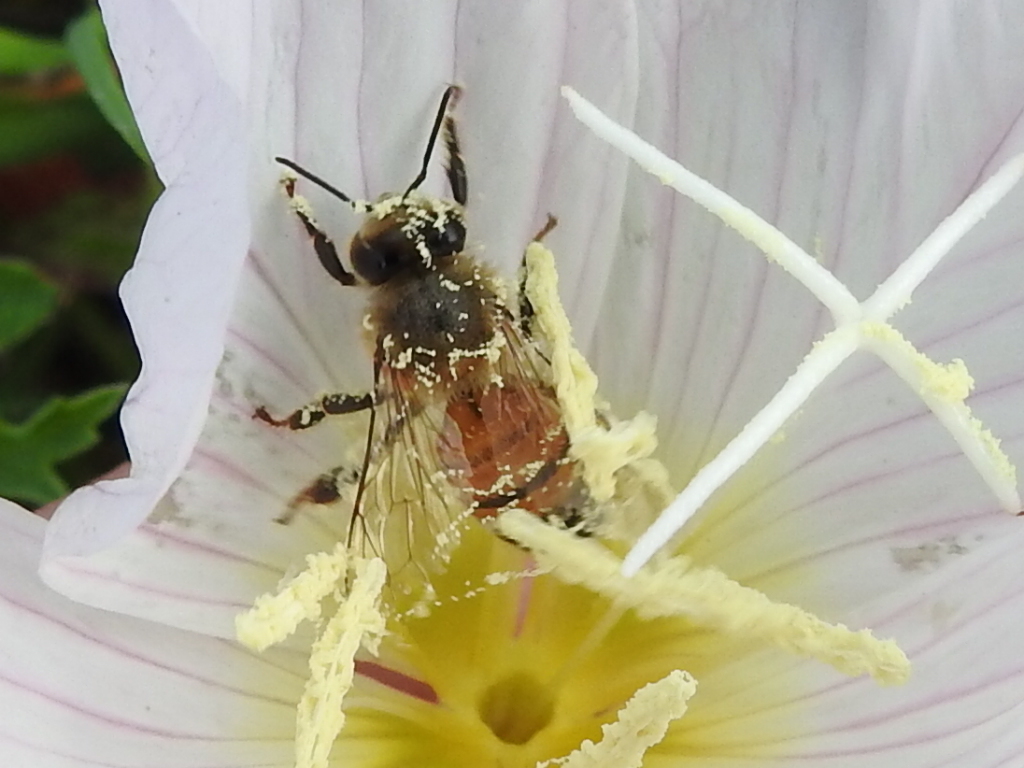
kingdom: Animalia
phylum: Arthropoda
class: Insecta
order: Hymenoptera
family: Apidae
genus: Apis
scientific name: Apis mellifera
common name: Honey bee
